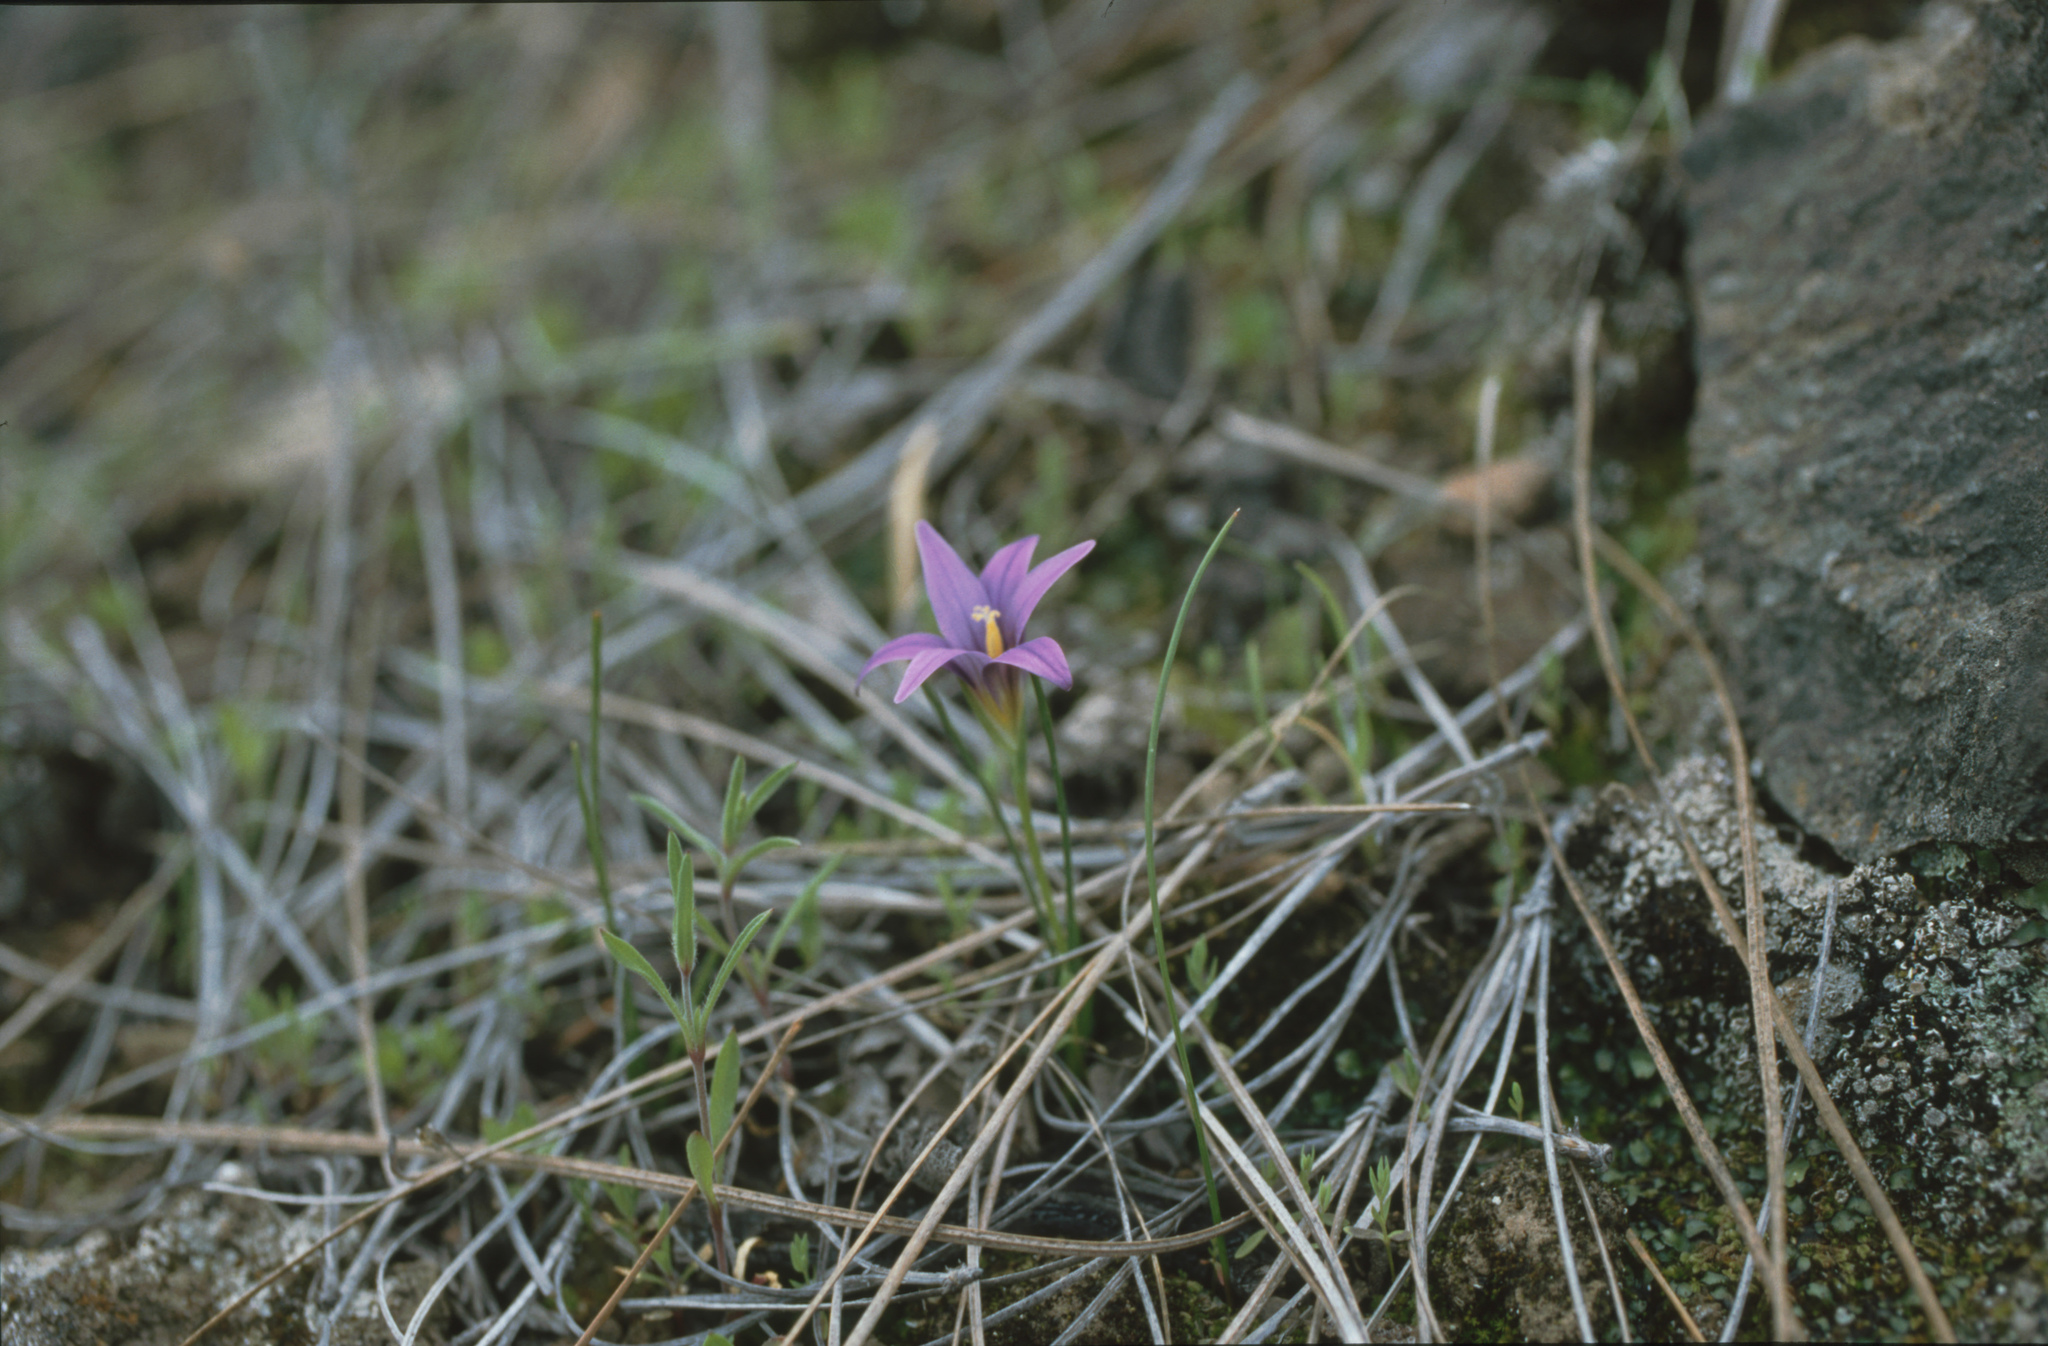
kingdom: Plantae
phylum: Tracheophyta
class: Liliopsida
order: Asparagales
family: Iridaceae
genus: Romulea
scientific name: Romulea columnae
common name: Sand-crocus
